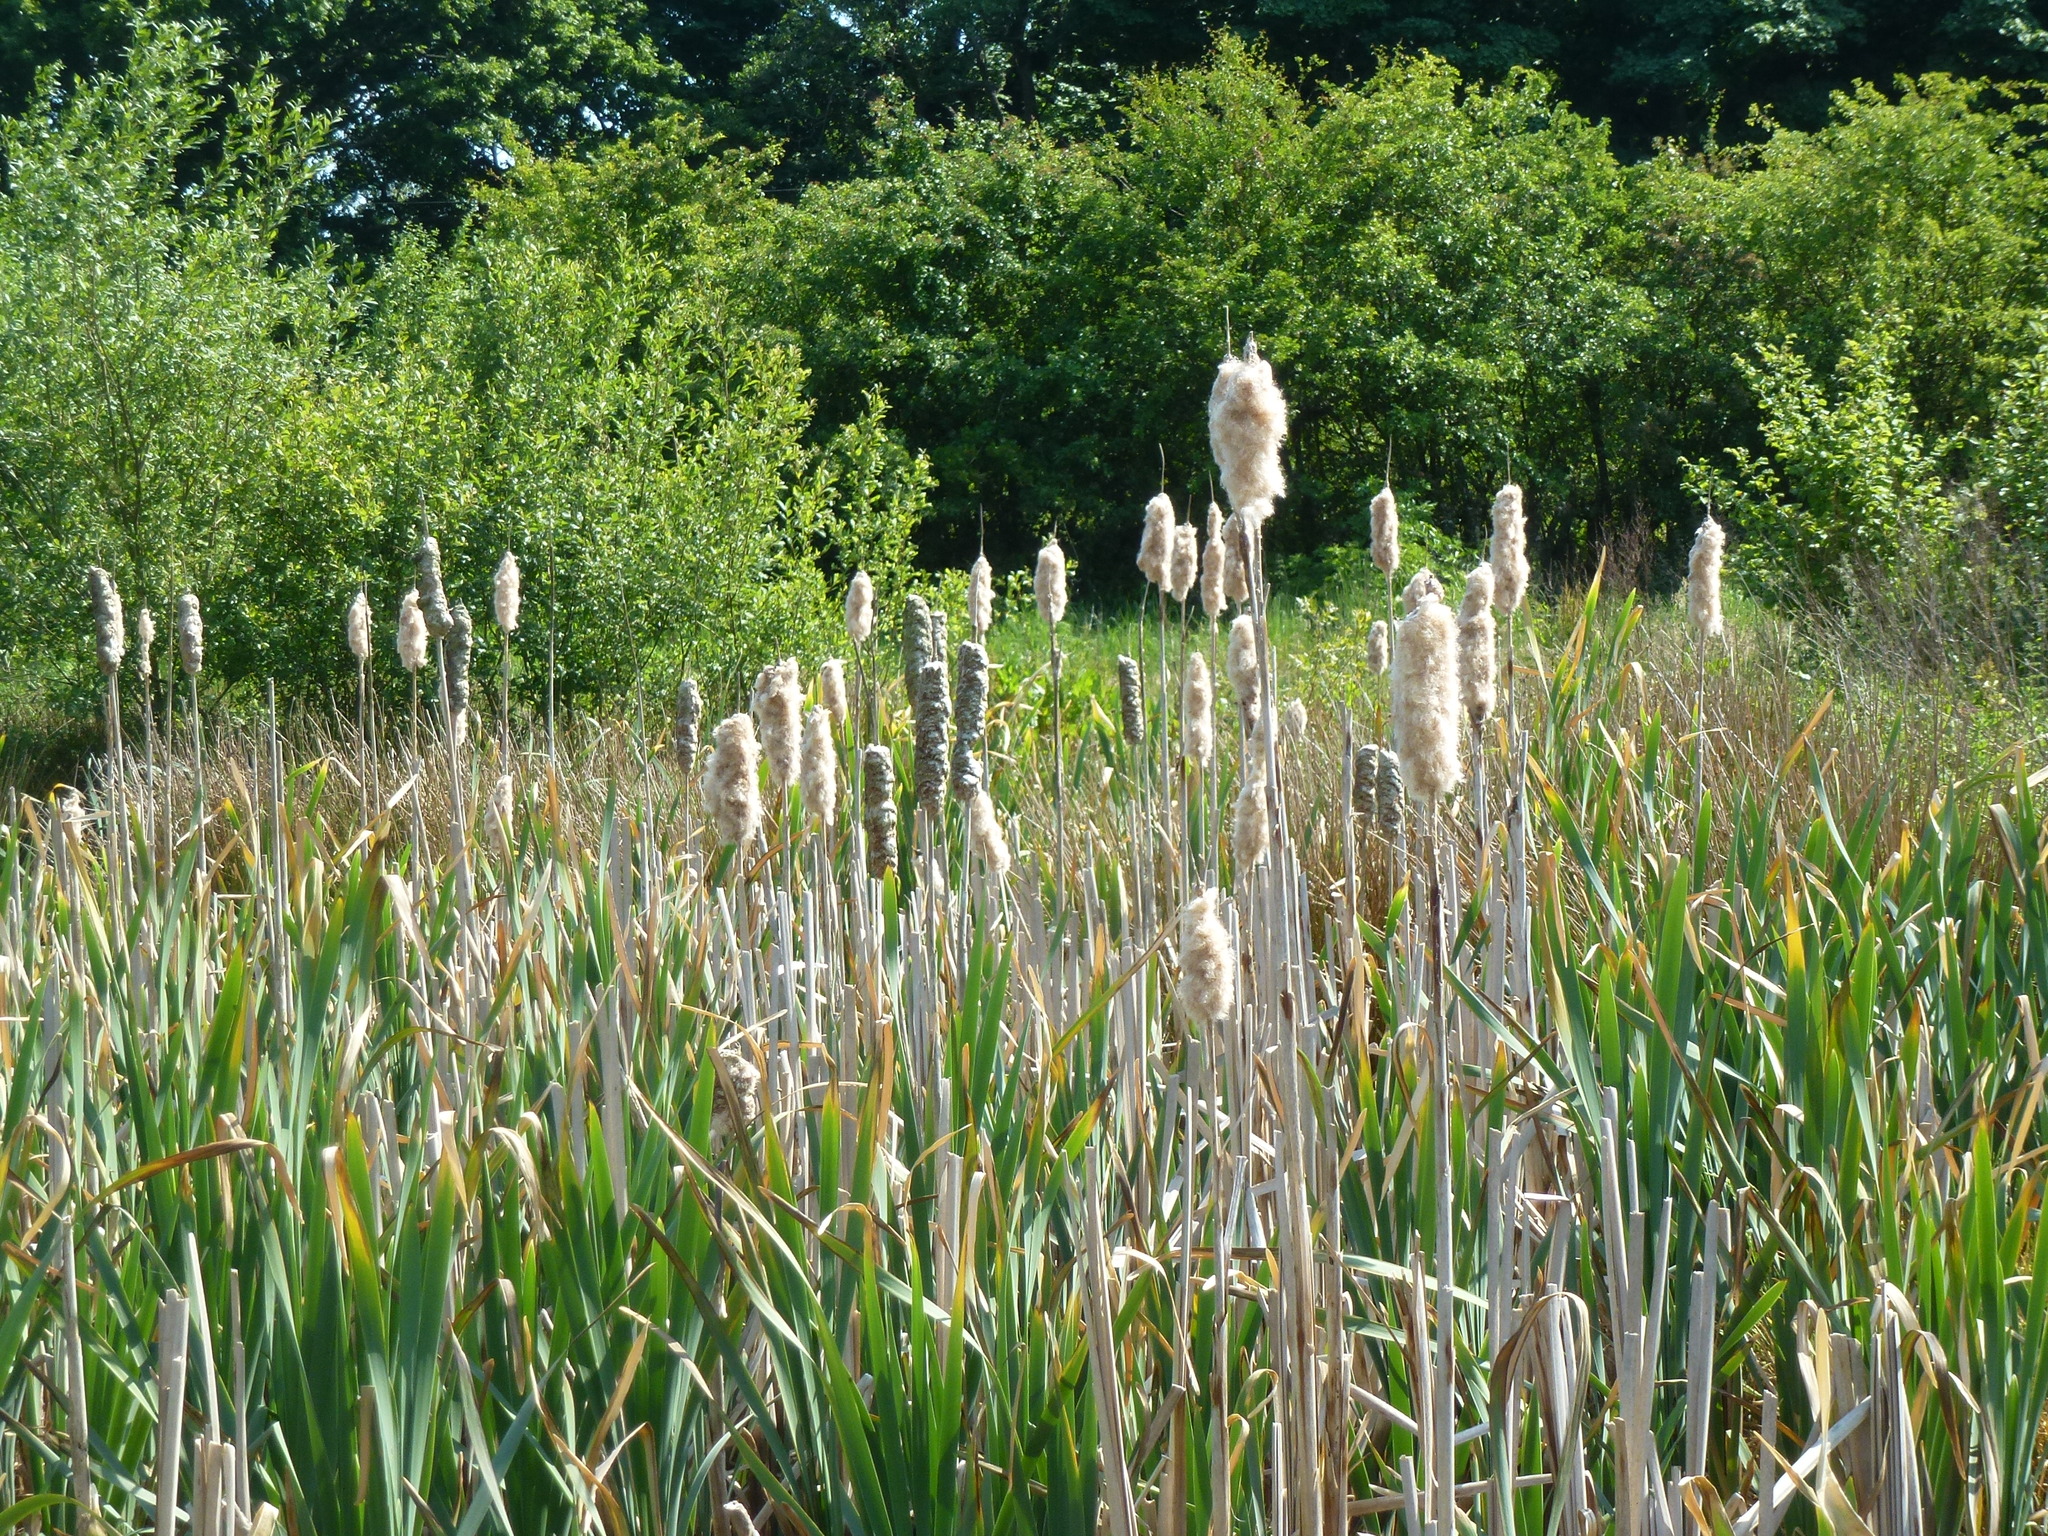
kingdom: Plantae
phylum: Tracheophyta
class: Liliopsida
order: Poales
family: Typhaceae
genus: Typha
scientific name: Typha latifolia
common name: Broadleaf cattail
